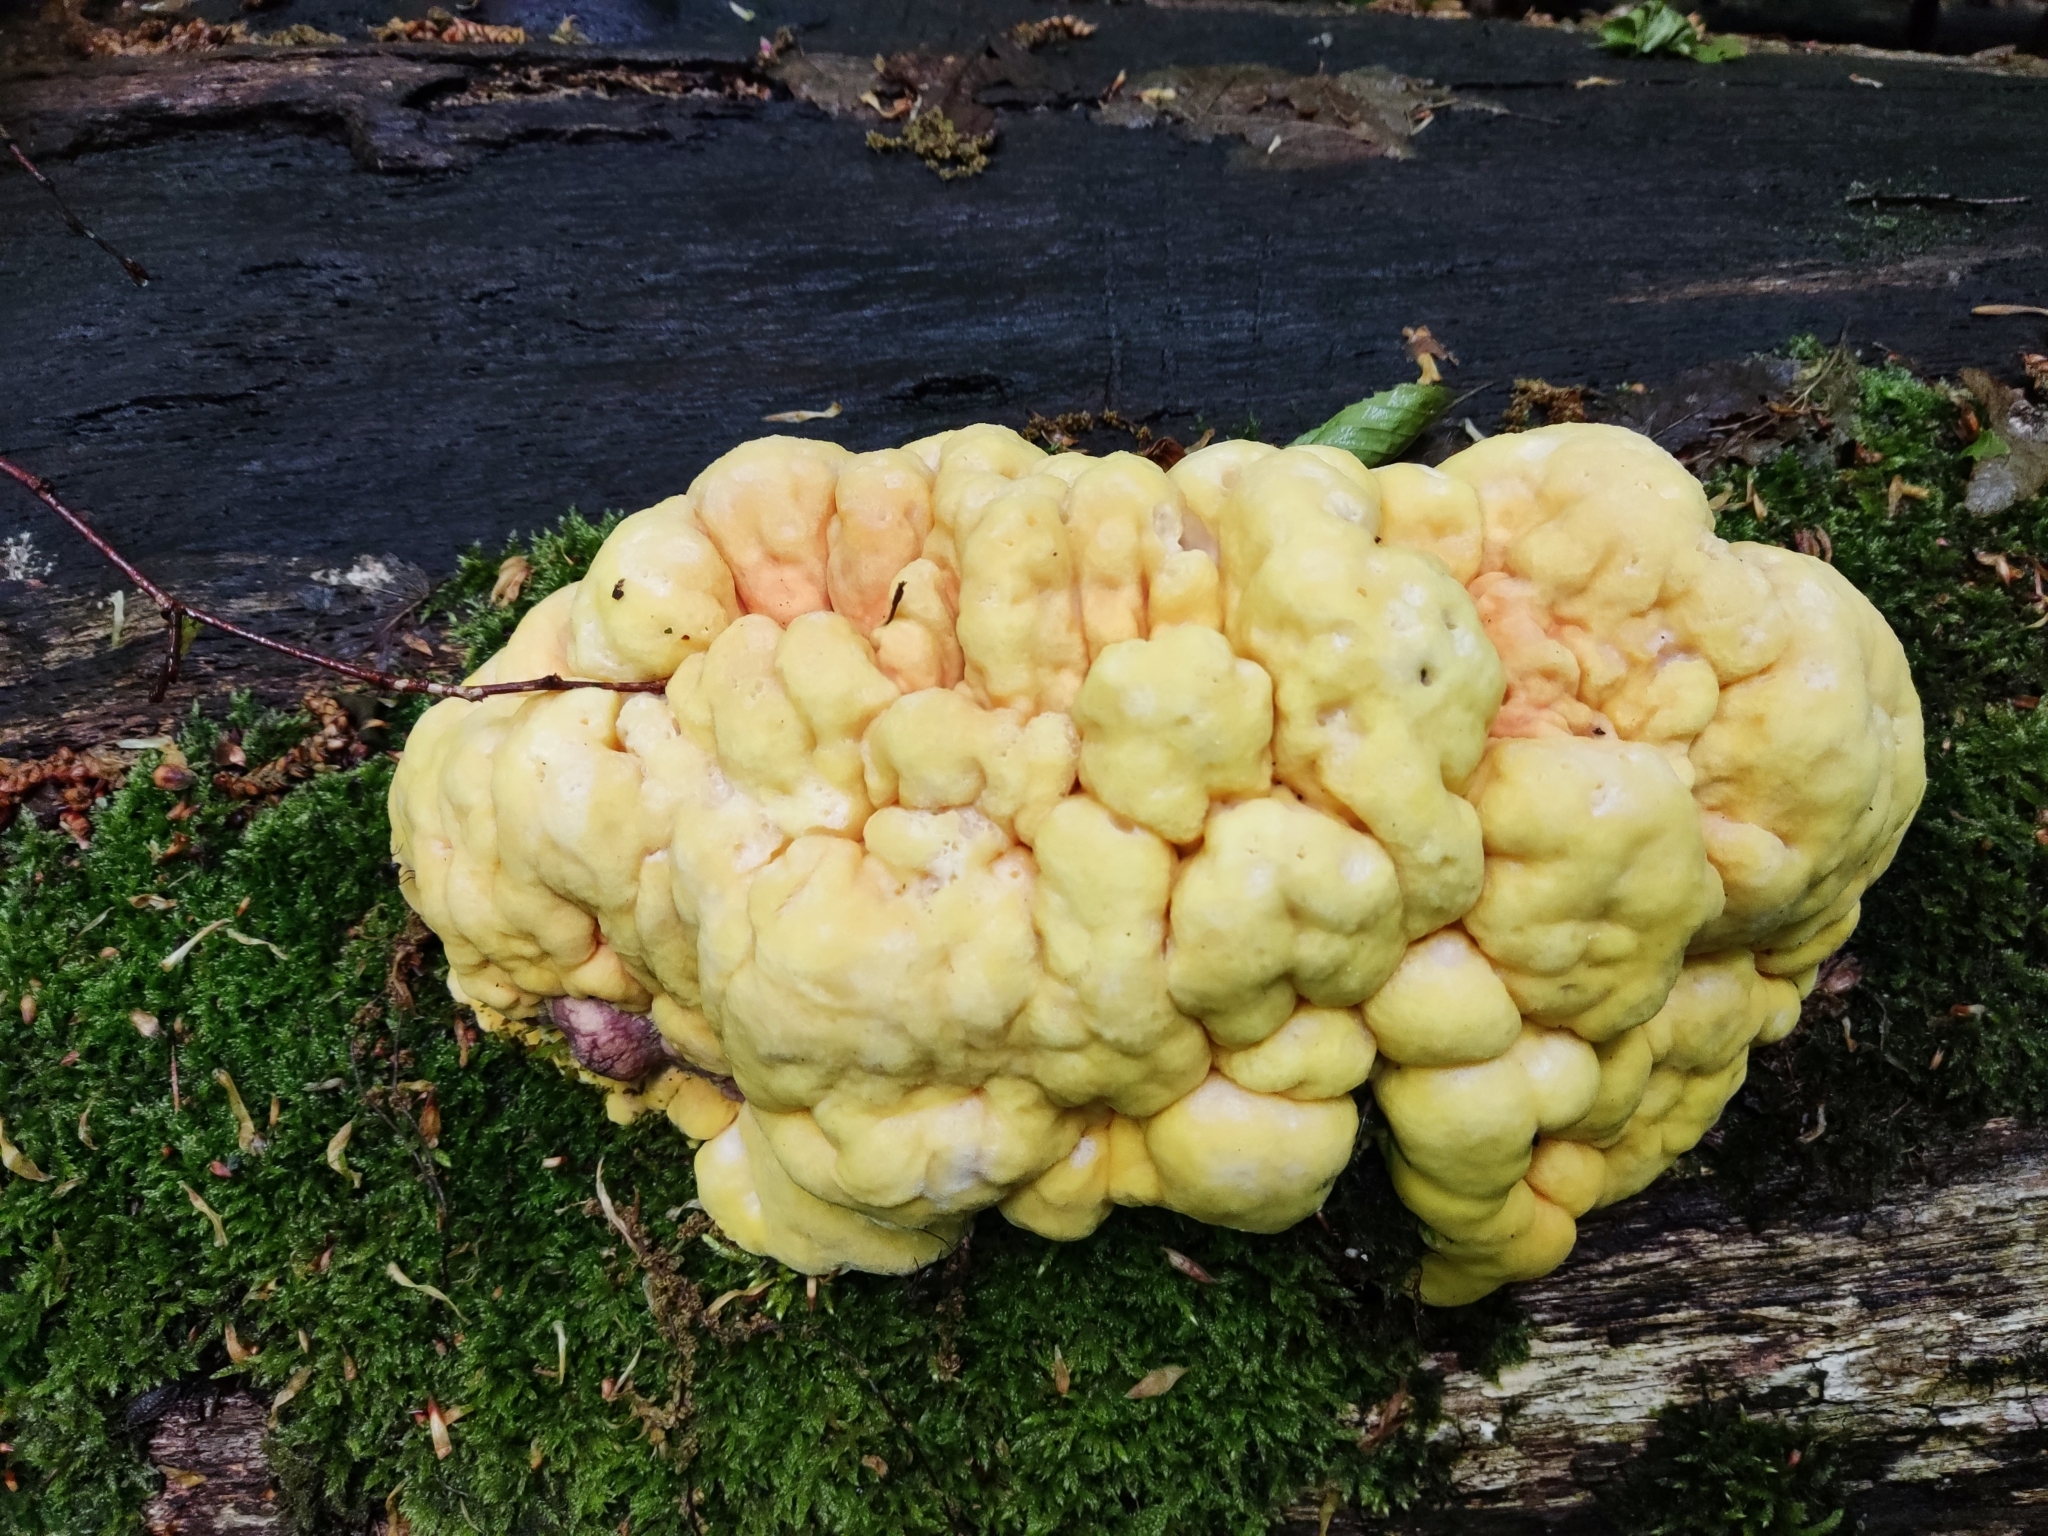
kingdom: Fungi
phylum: Basidiomycota
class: Agaricomycetes
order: Polyporales
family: Laetiporaceae
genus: Laetiporus
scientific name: Laetiporus sulphureus
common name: Chicken of the woods
